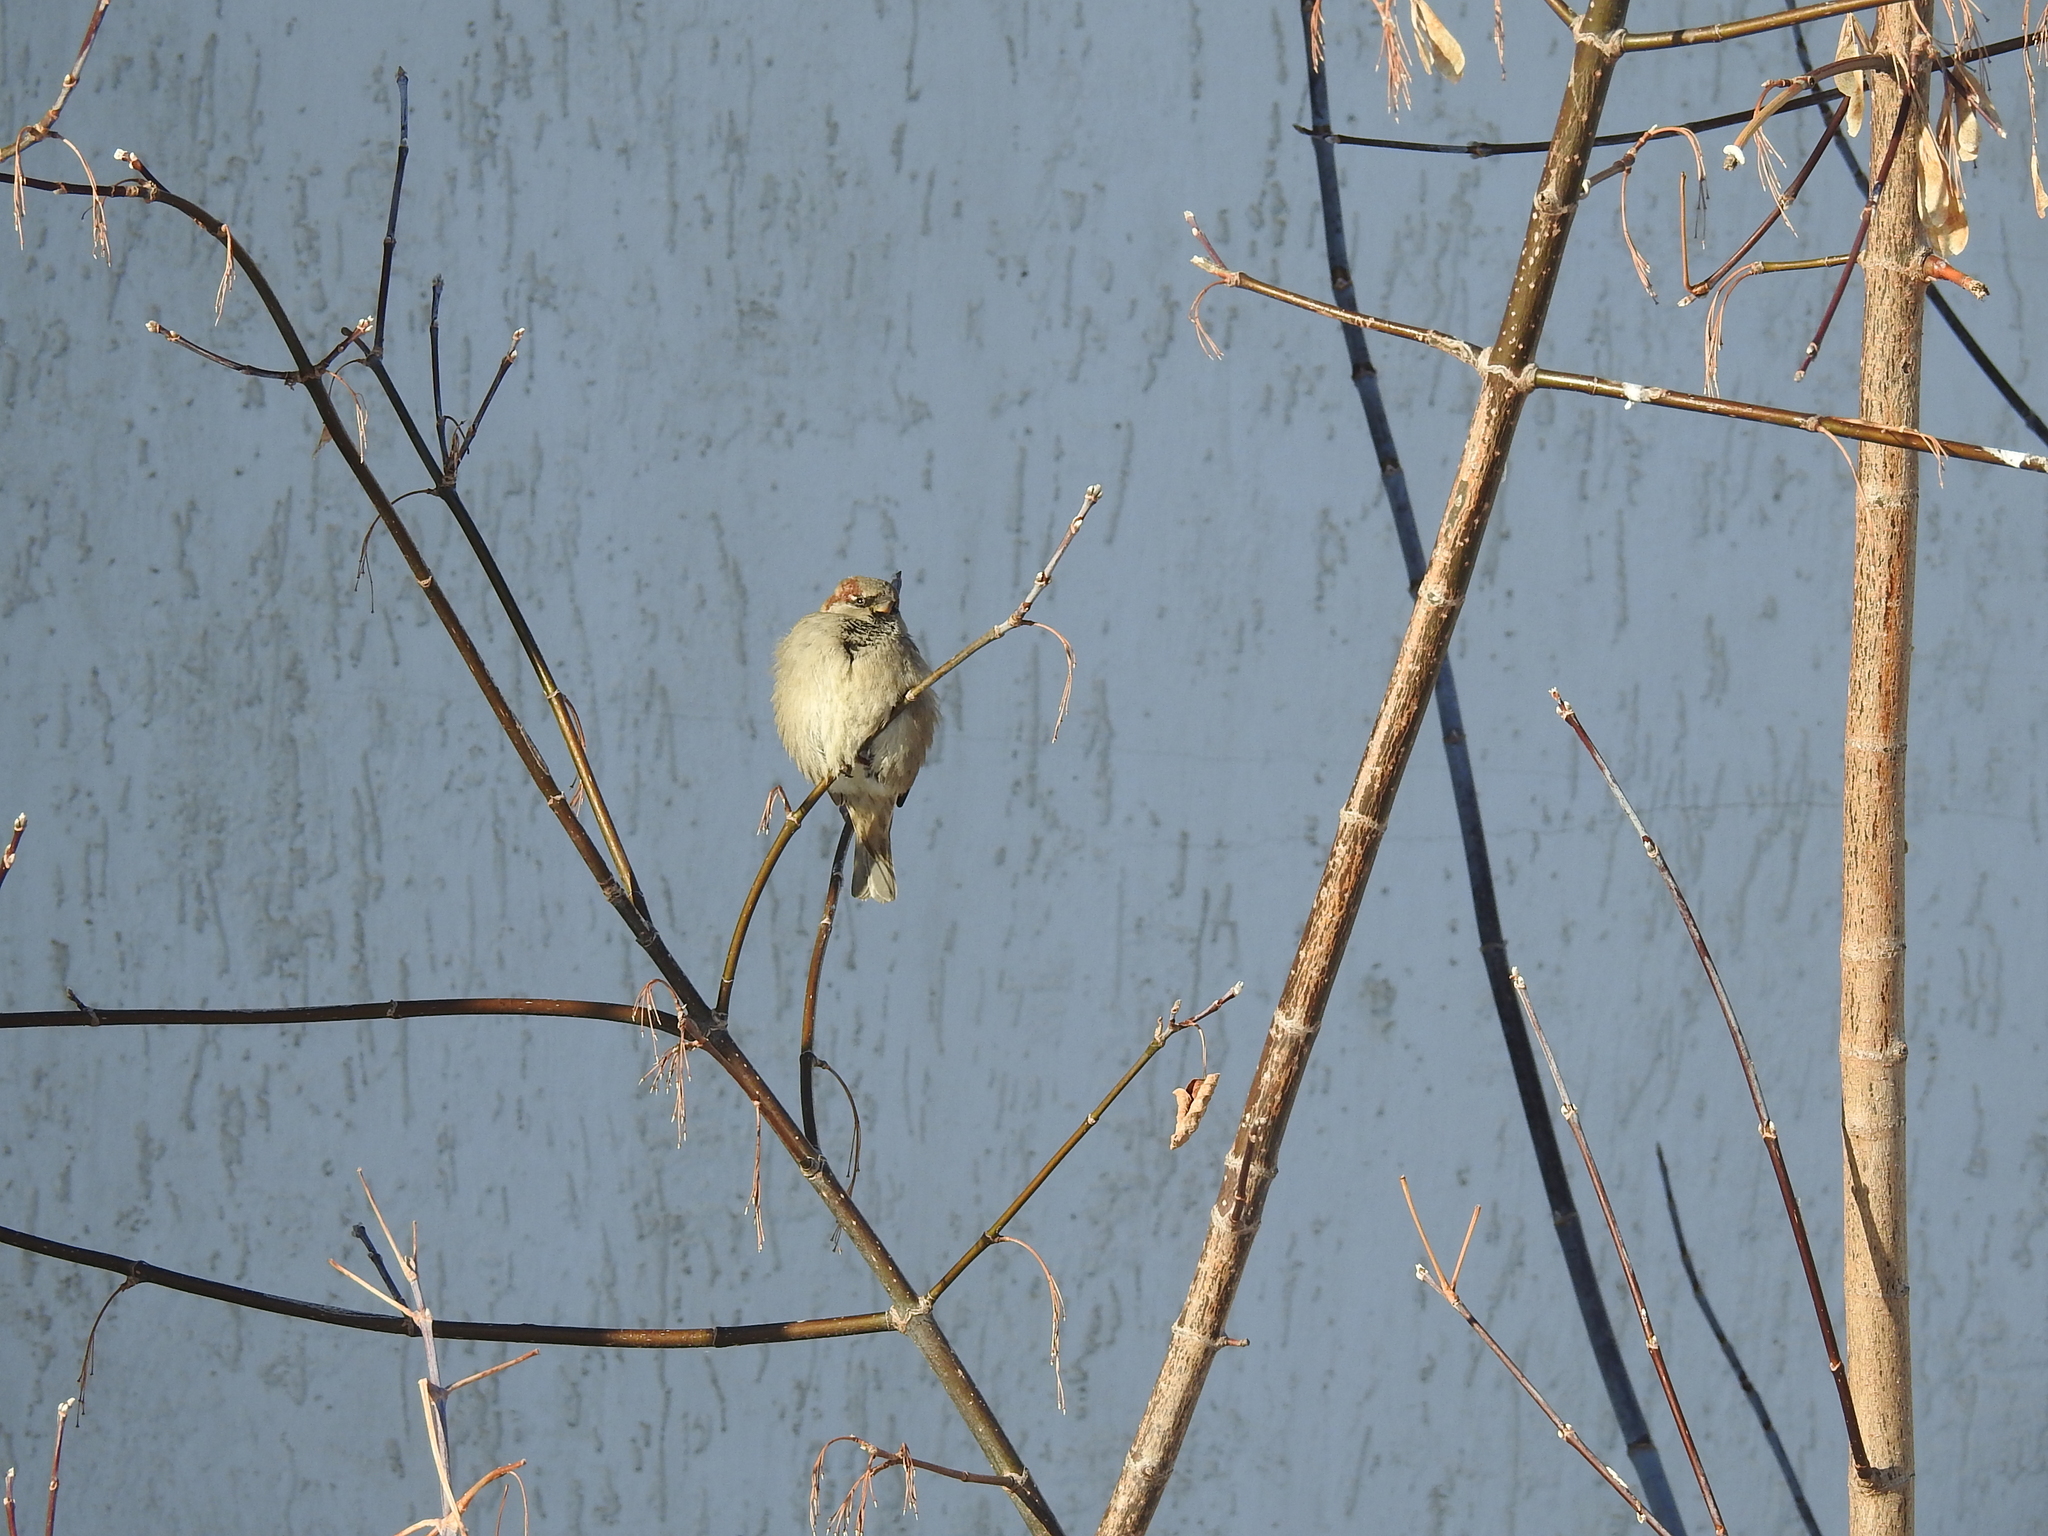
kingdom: Animalia
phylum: Chordata
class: Aves
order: Passeriformes
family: Passeridae
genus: Passer
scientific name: Passer domesticus
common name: House sparrow
